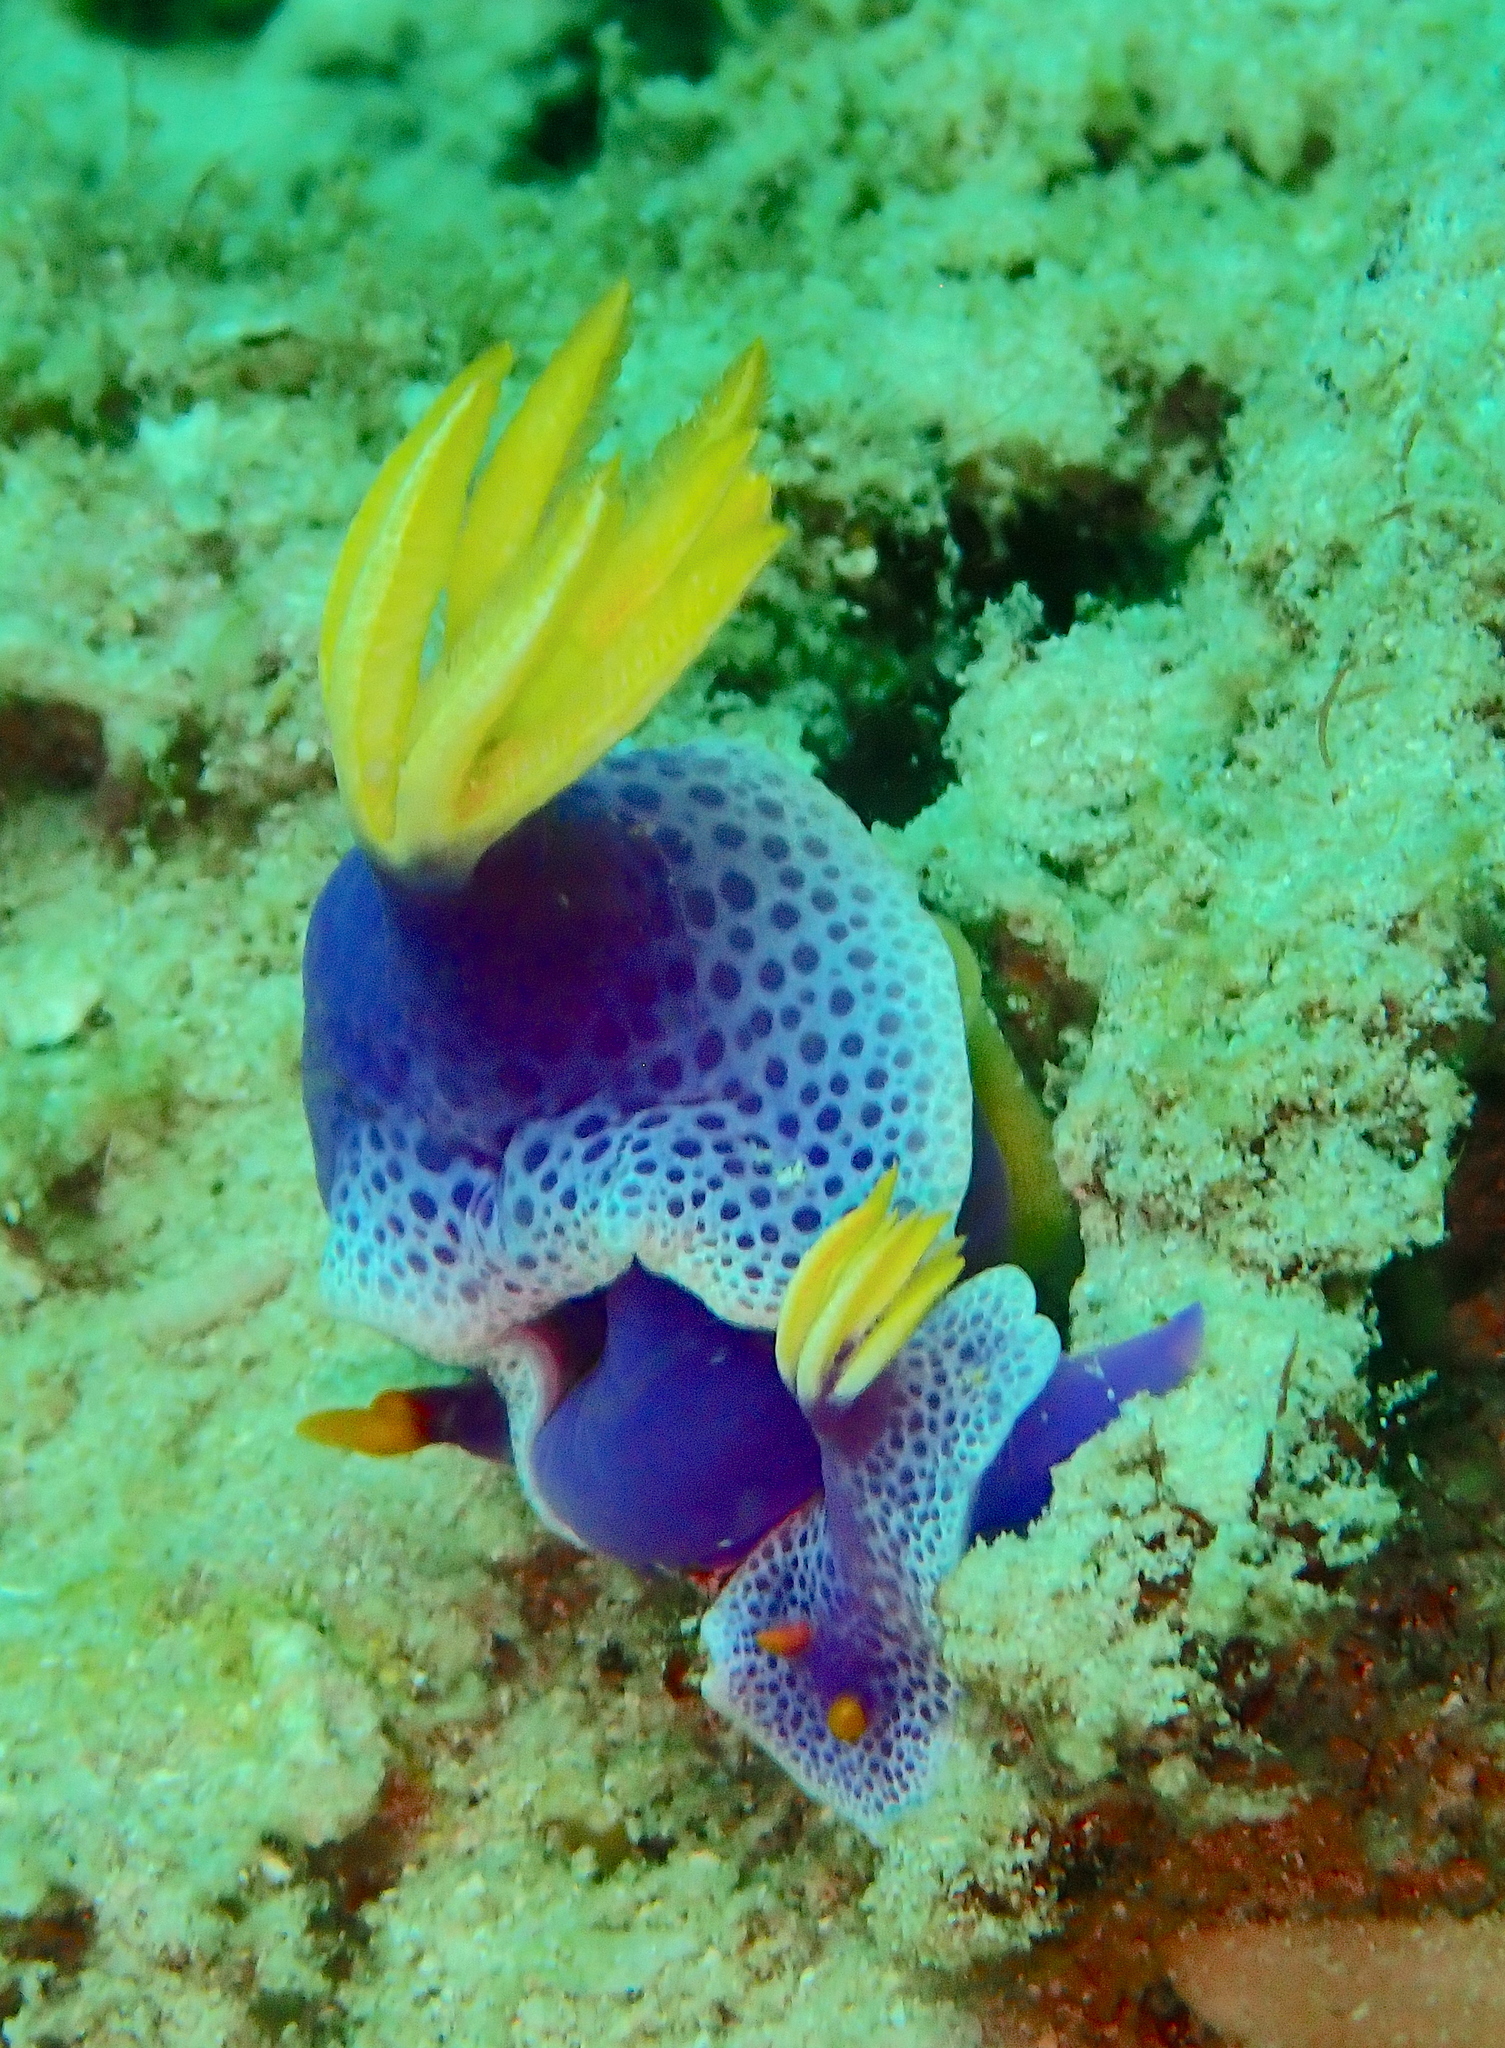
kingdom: Animalia
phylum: Mollusca
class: Gastropoda
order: Nudibranchia
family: Chromodorididae
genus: Hypselodoris
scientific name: Hypselodoris apolegma
